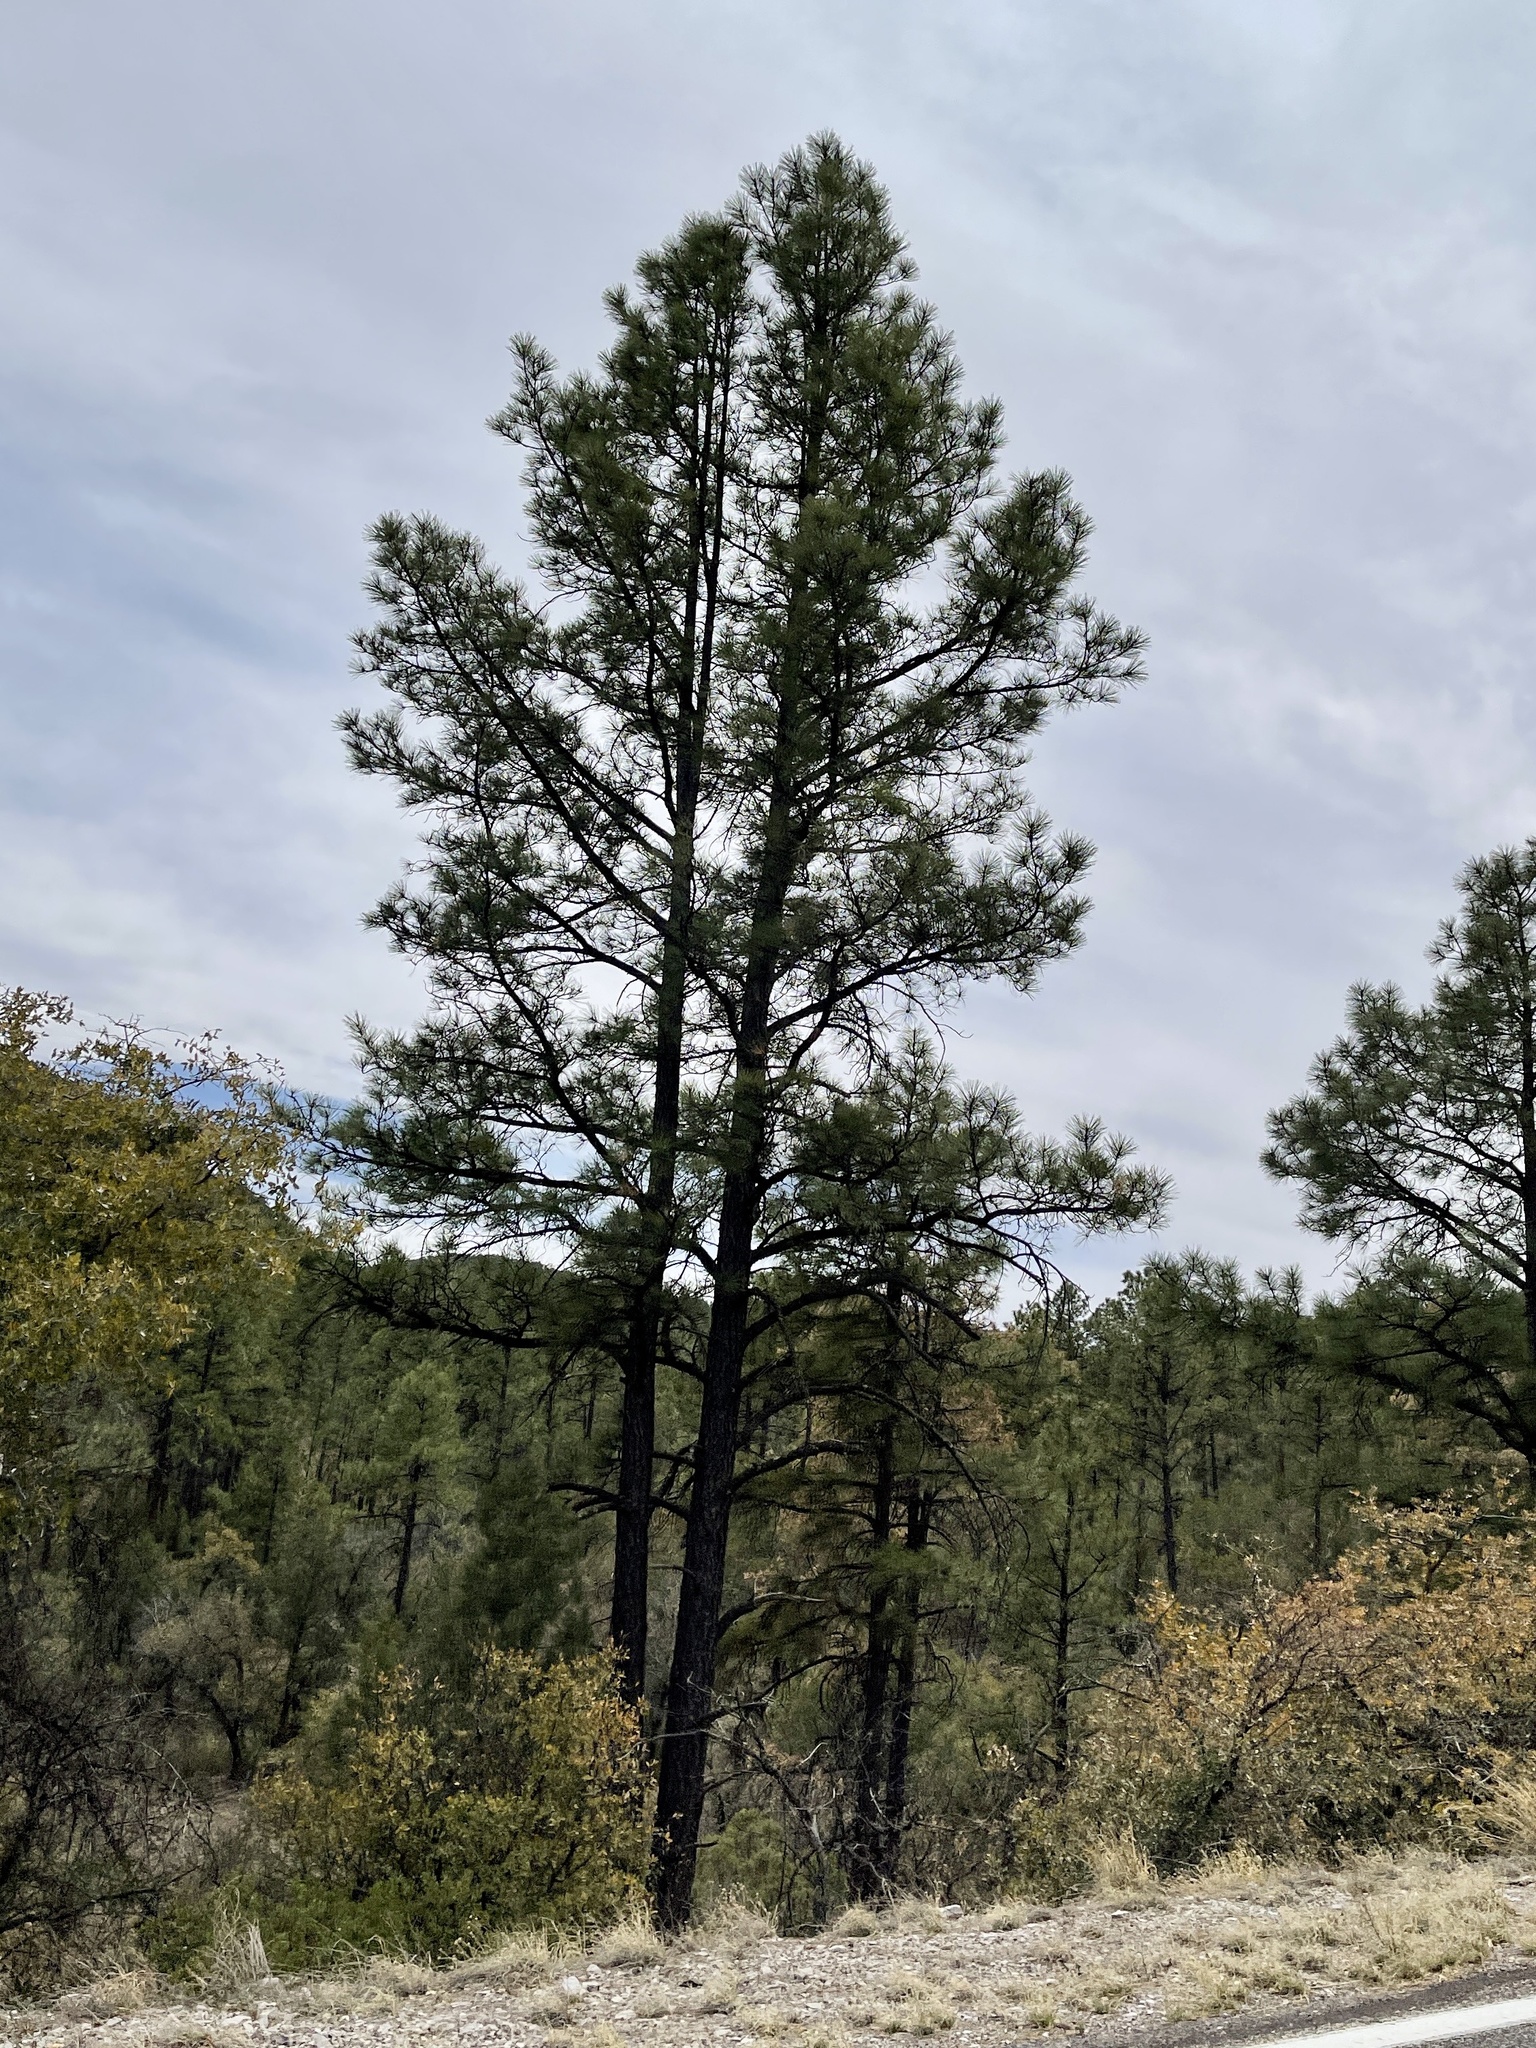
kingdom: Plantae
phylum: Tracheophyta
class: Pinopsida
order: Pinales
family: Pinaceae
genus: Pinus
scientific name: Pinus ponderosa
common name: Western yellow-pine
